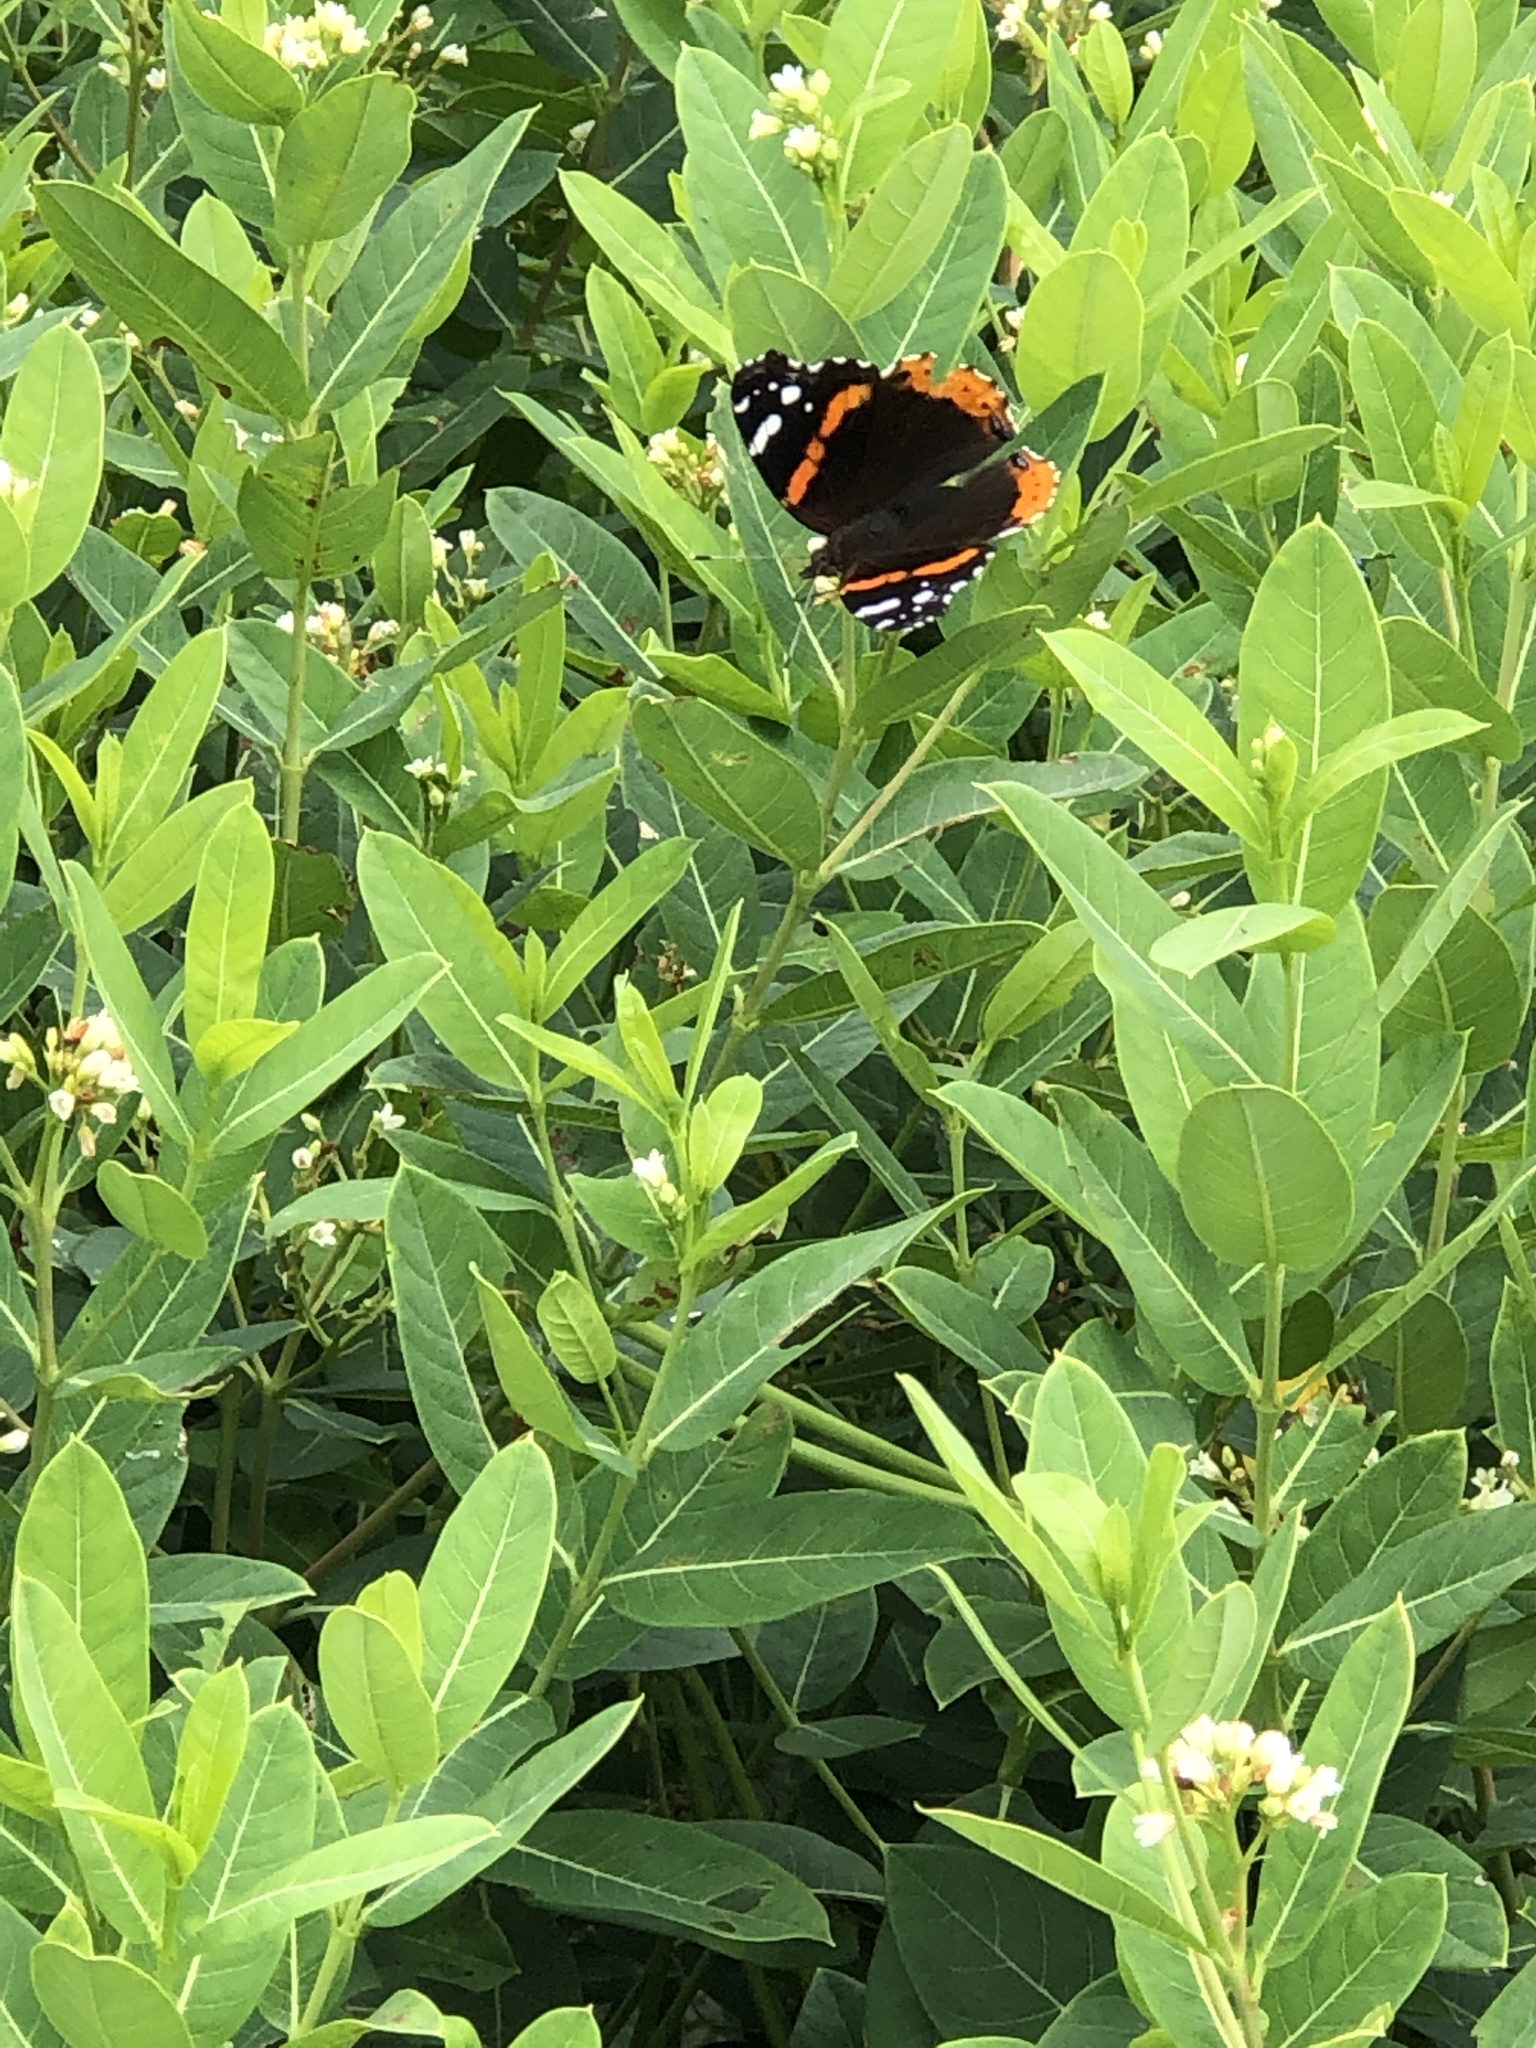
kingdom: Animalia
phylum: Arthropoda
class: Insecta
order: Lepidoptera
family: Nymphalidae
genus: Vanessa
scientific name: Vanessa atalanta
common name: Red admiral
